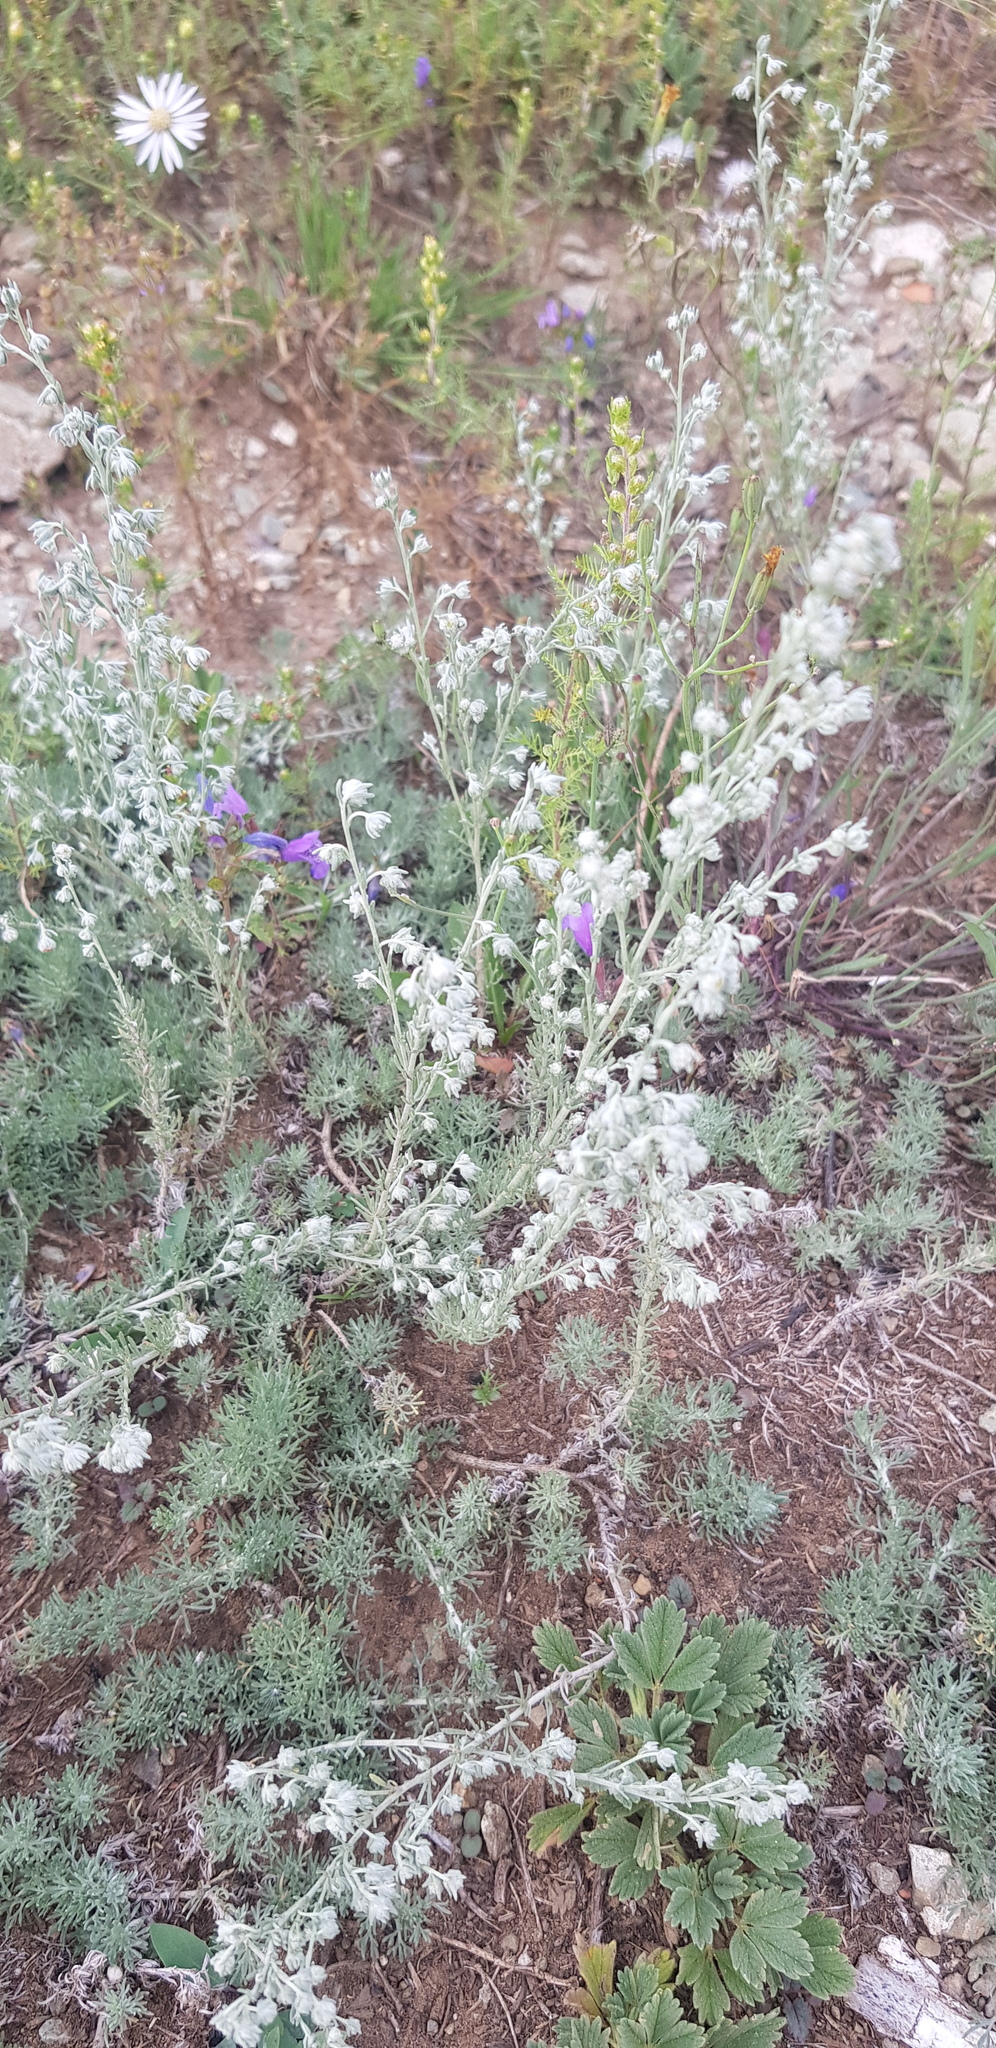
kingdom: Plantae
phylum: Tracheophyta
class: Magnoliopsida
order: Asterales
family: Asteraceae
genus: Artemisia
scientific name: Artemisia frigida
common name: Prairie sagewort
